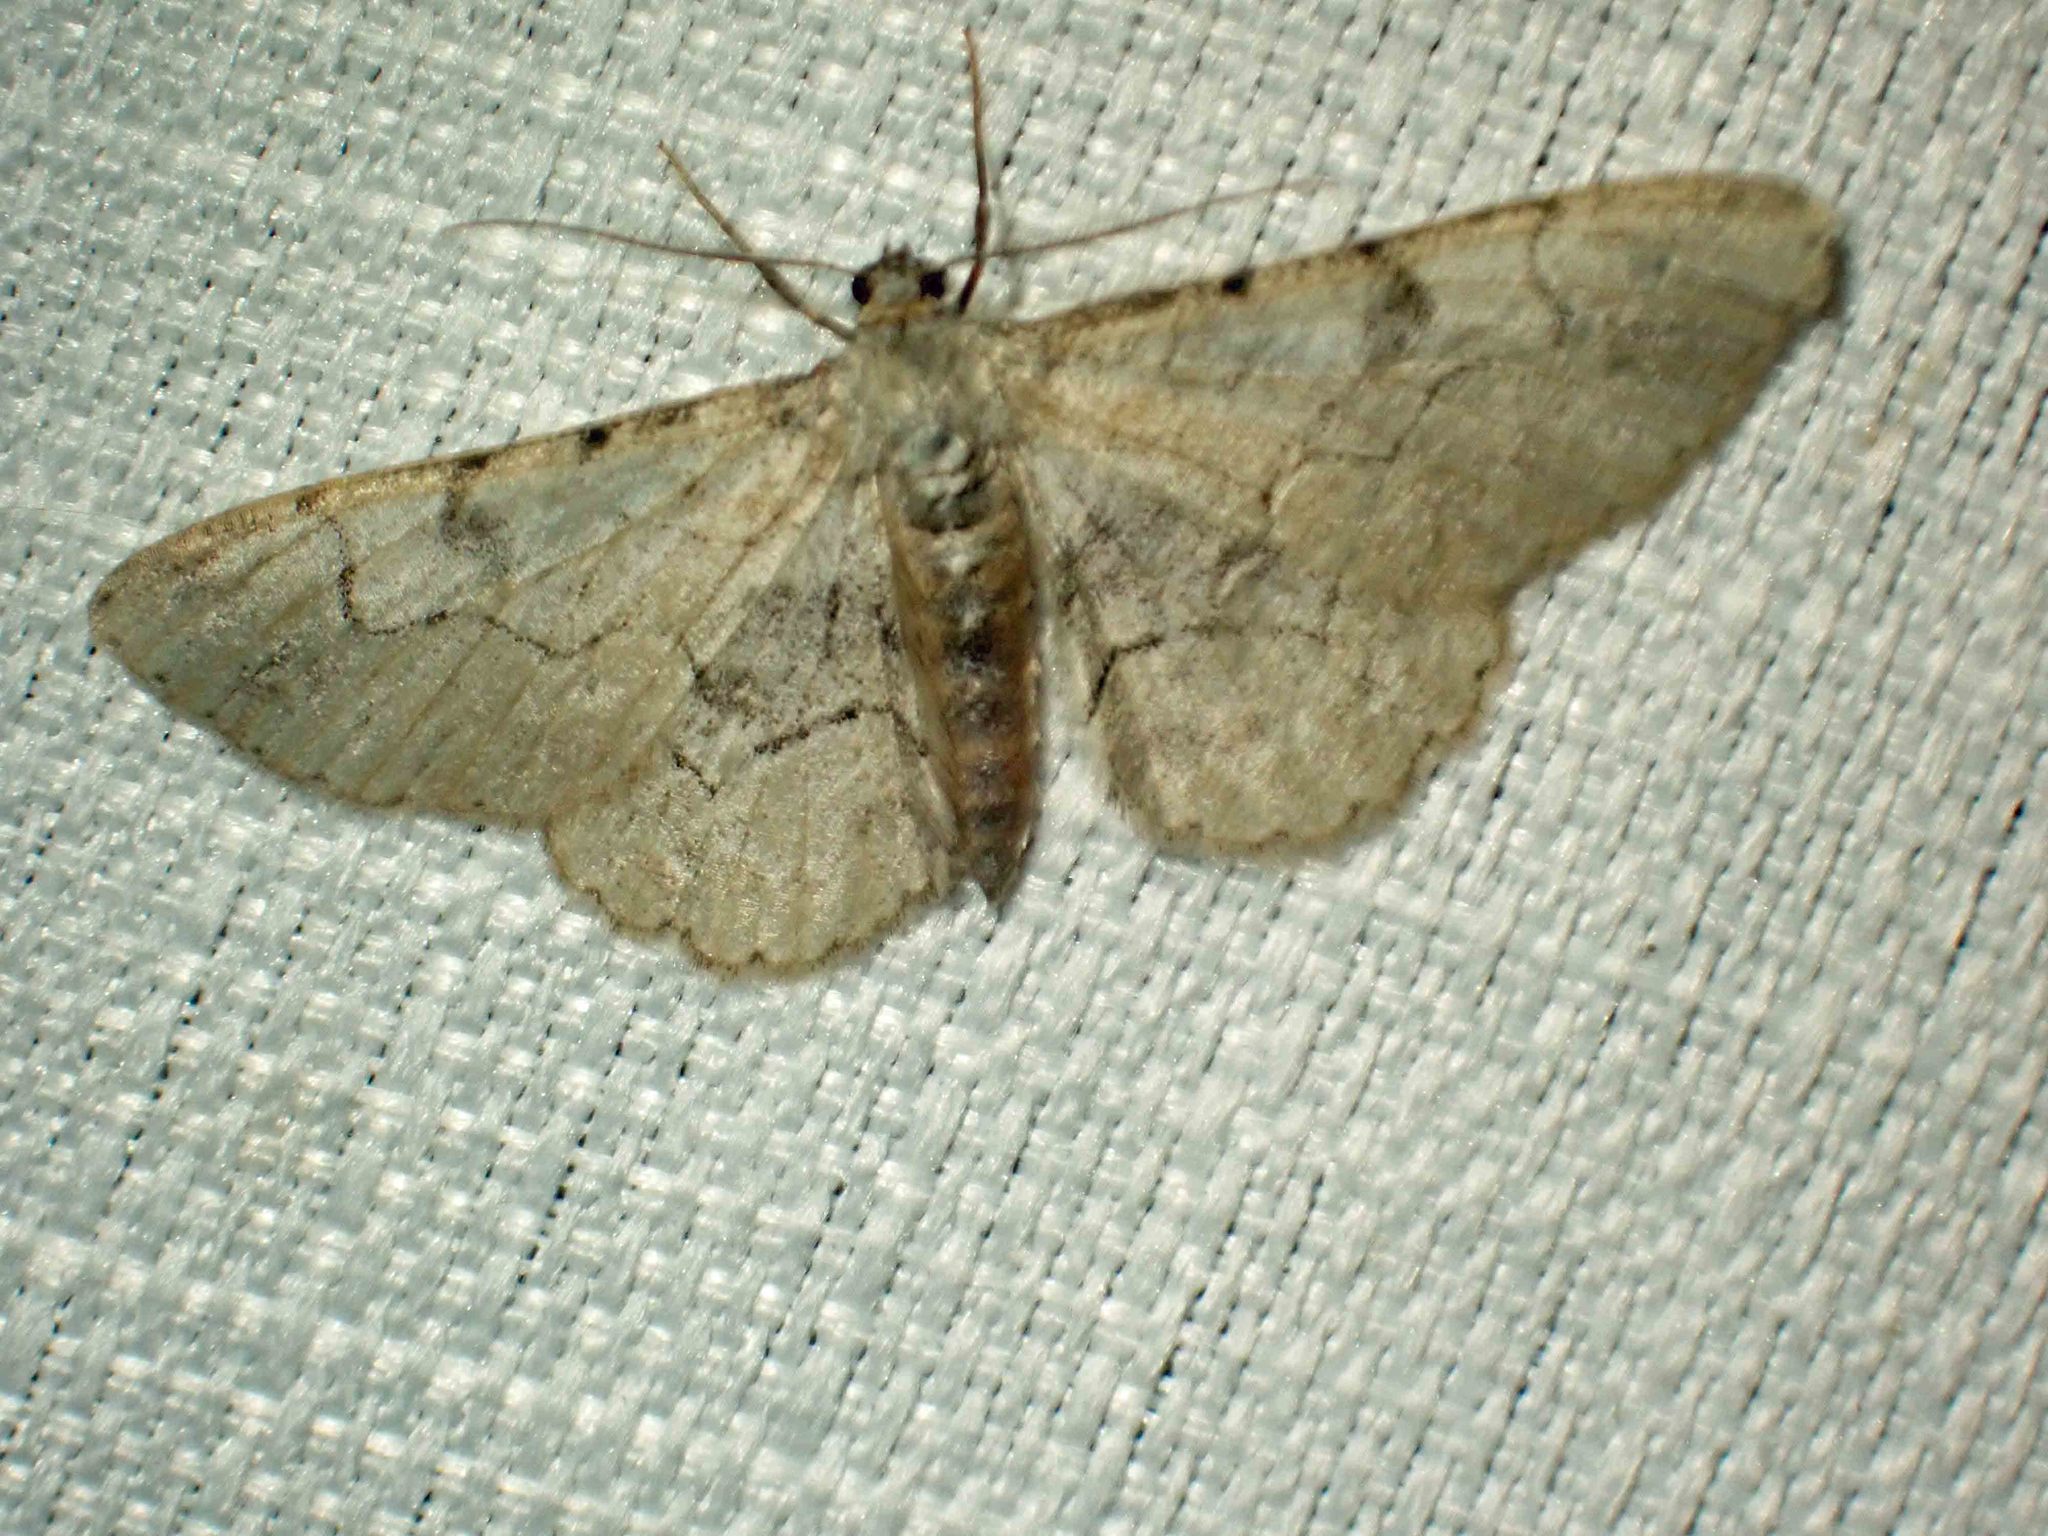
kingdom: Animalia
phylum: Arthropoda
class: Insecta
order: Lepidoptera
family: Geometridae
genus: Iridopsis
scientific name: Iridopsis larvaria
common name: Bent-line gray
